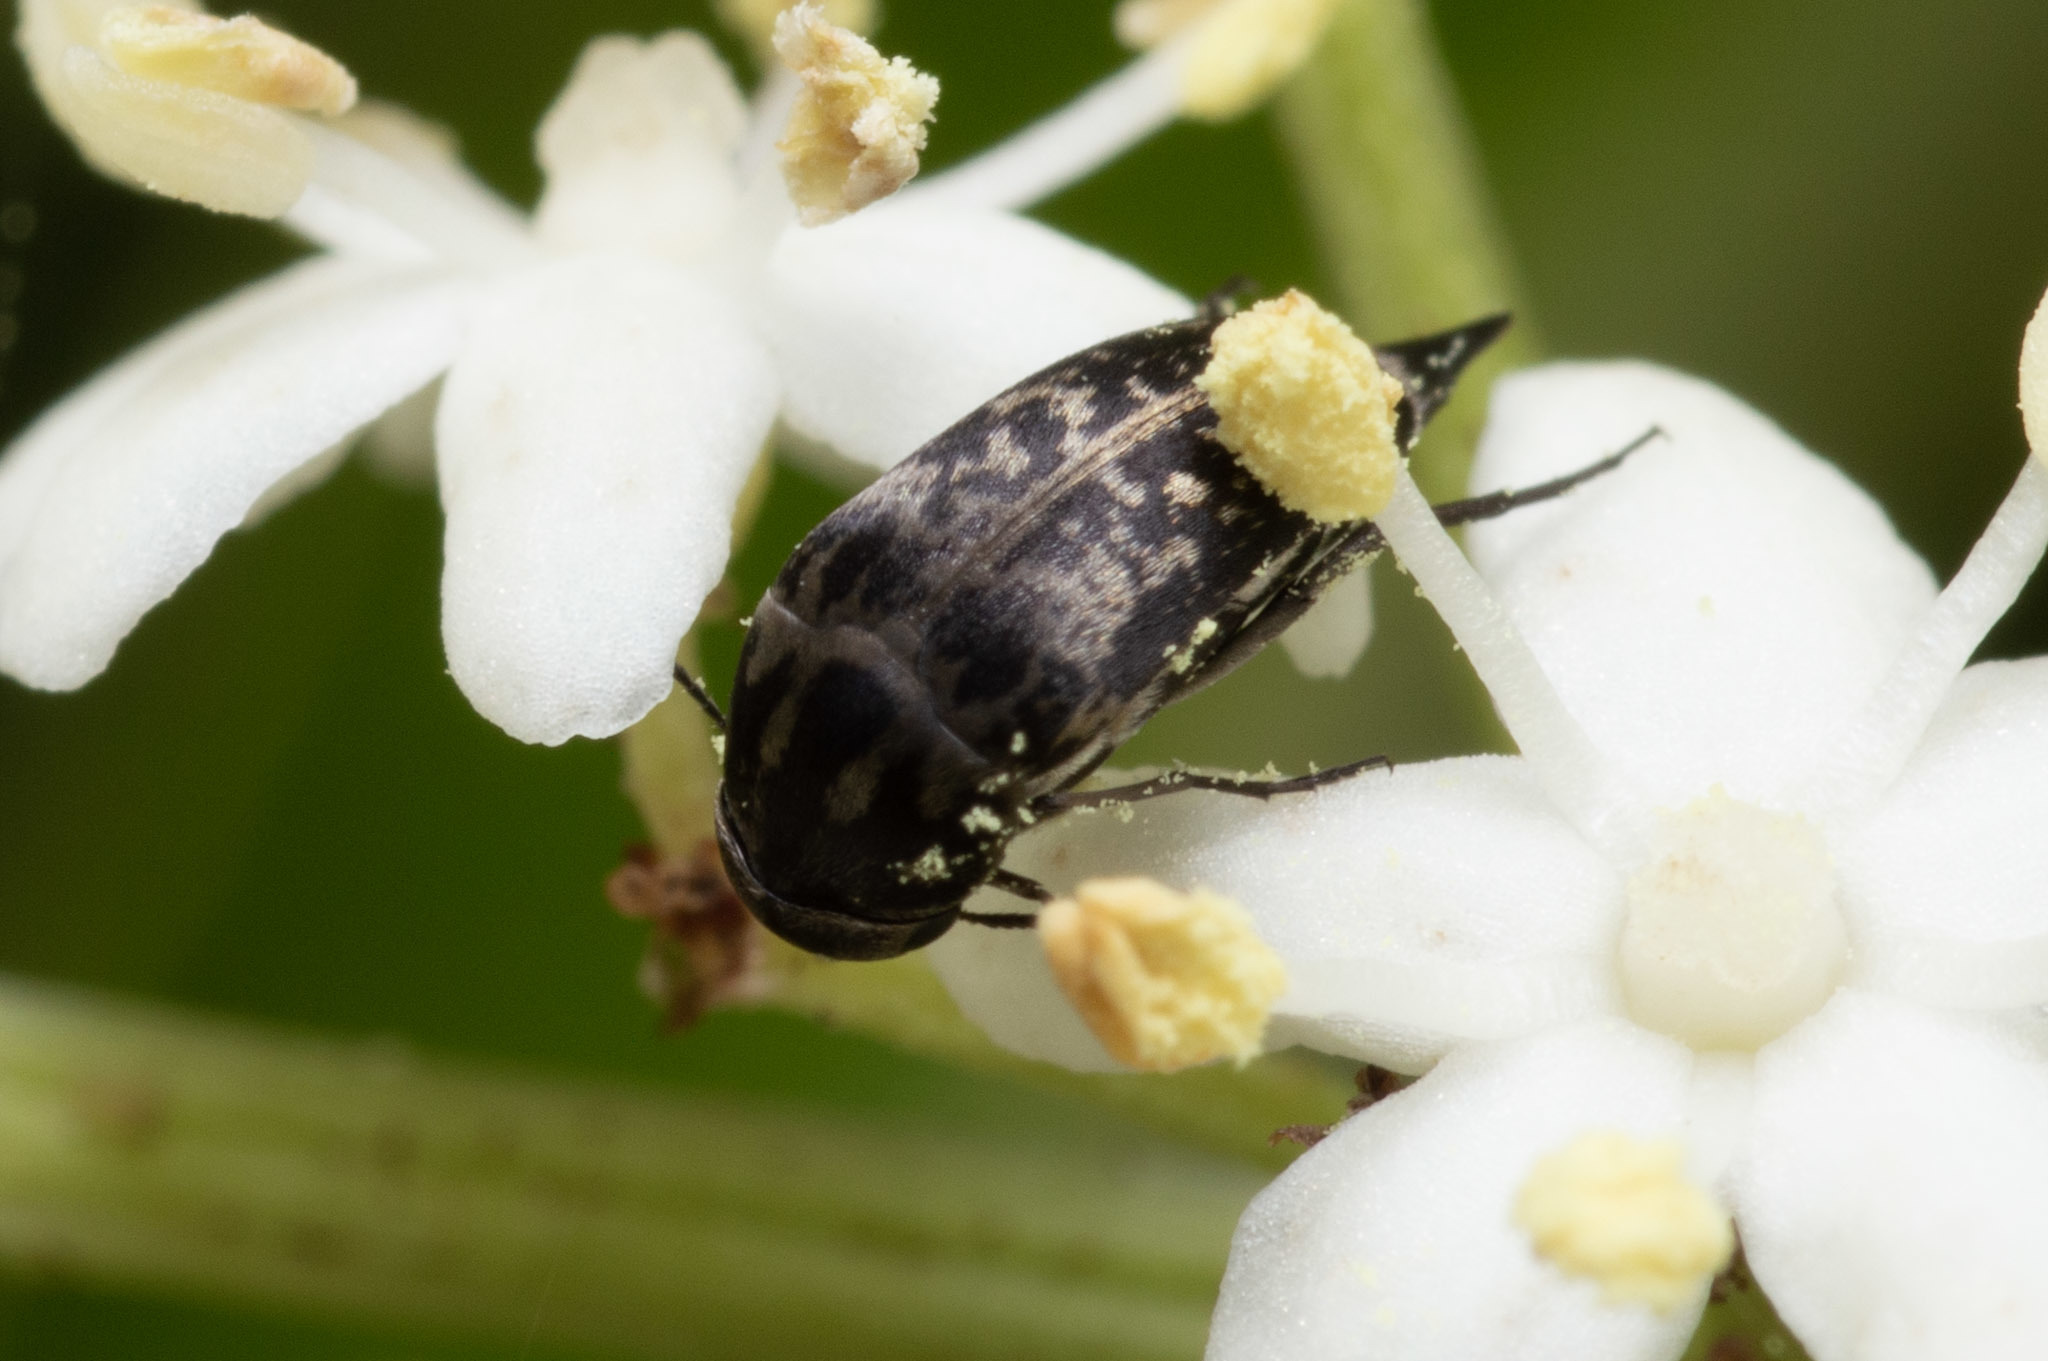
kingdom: Animalia
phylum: Arthropoda
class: Insecta
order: Coleoptera
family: Mordellidae
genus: Mordella
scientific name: Mordella marginata
